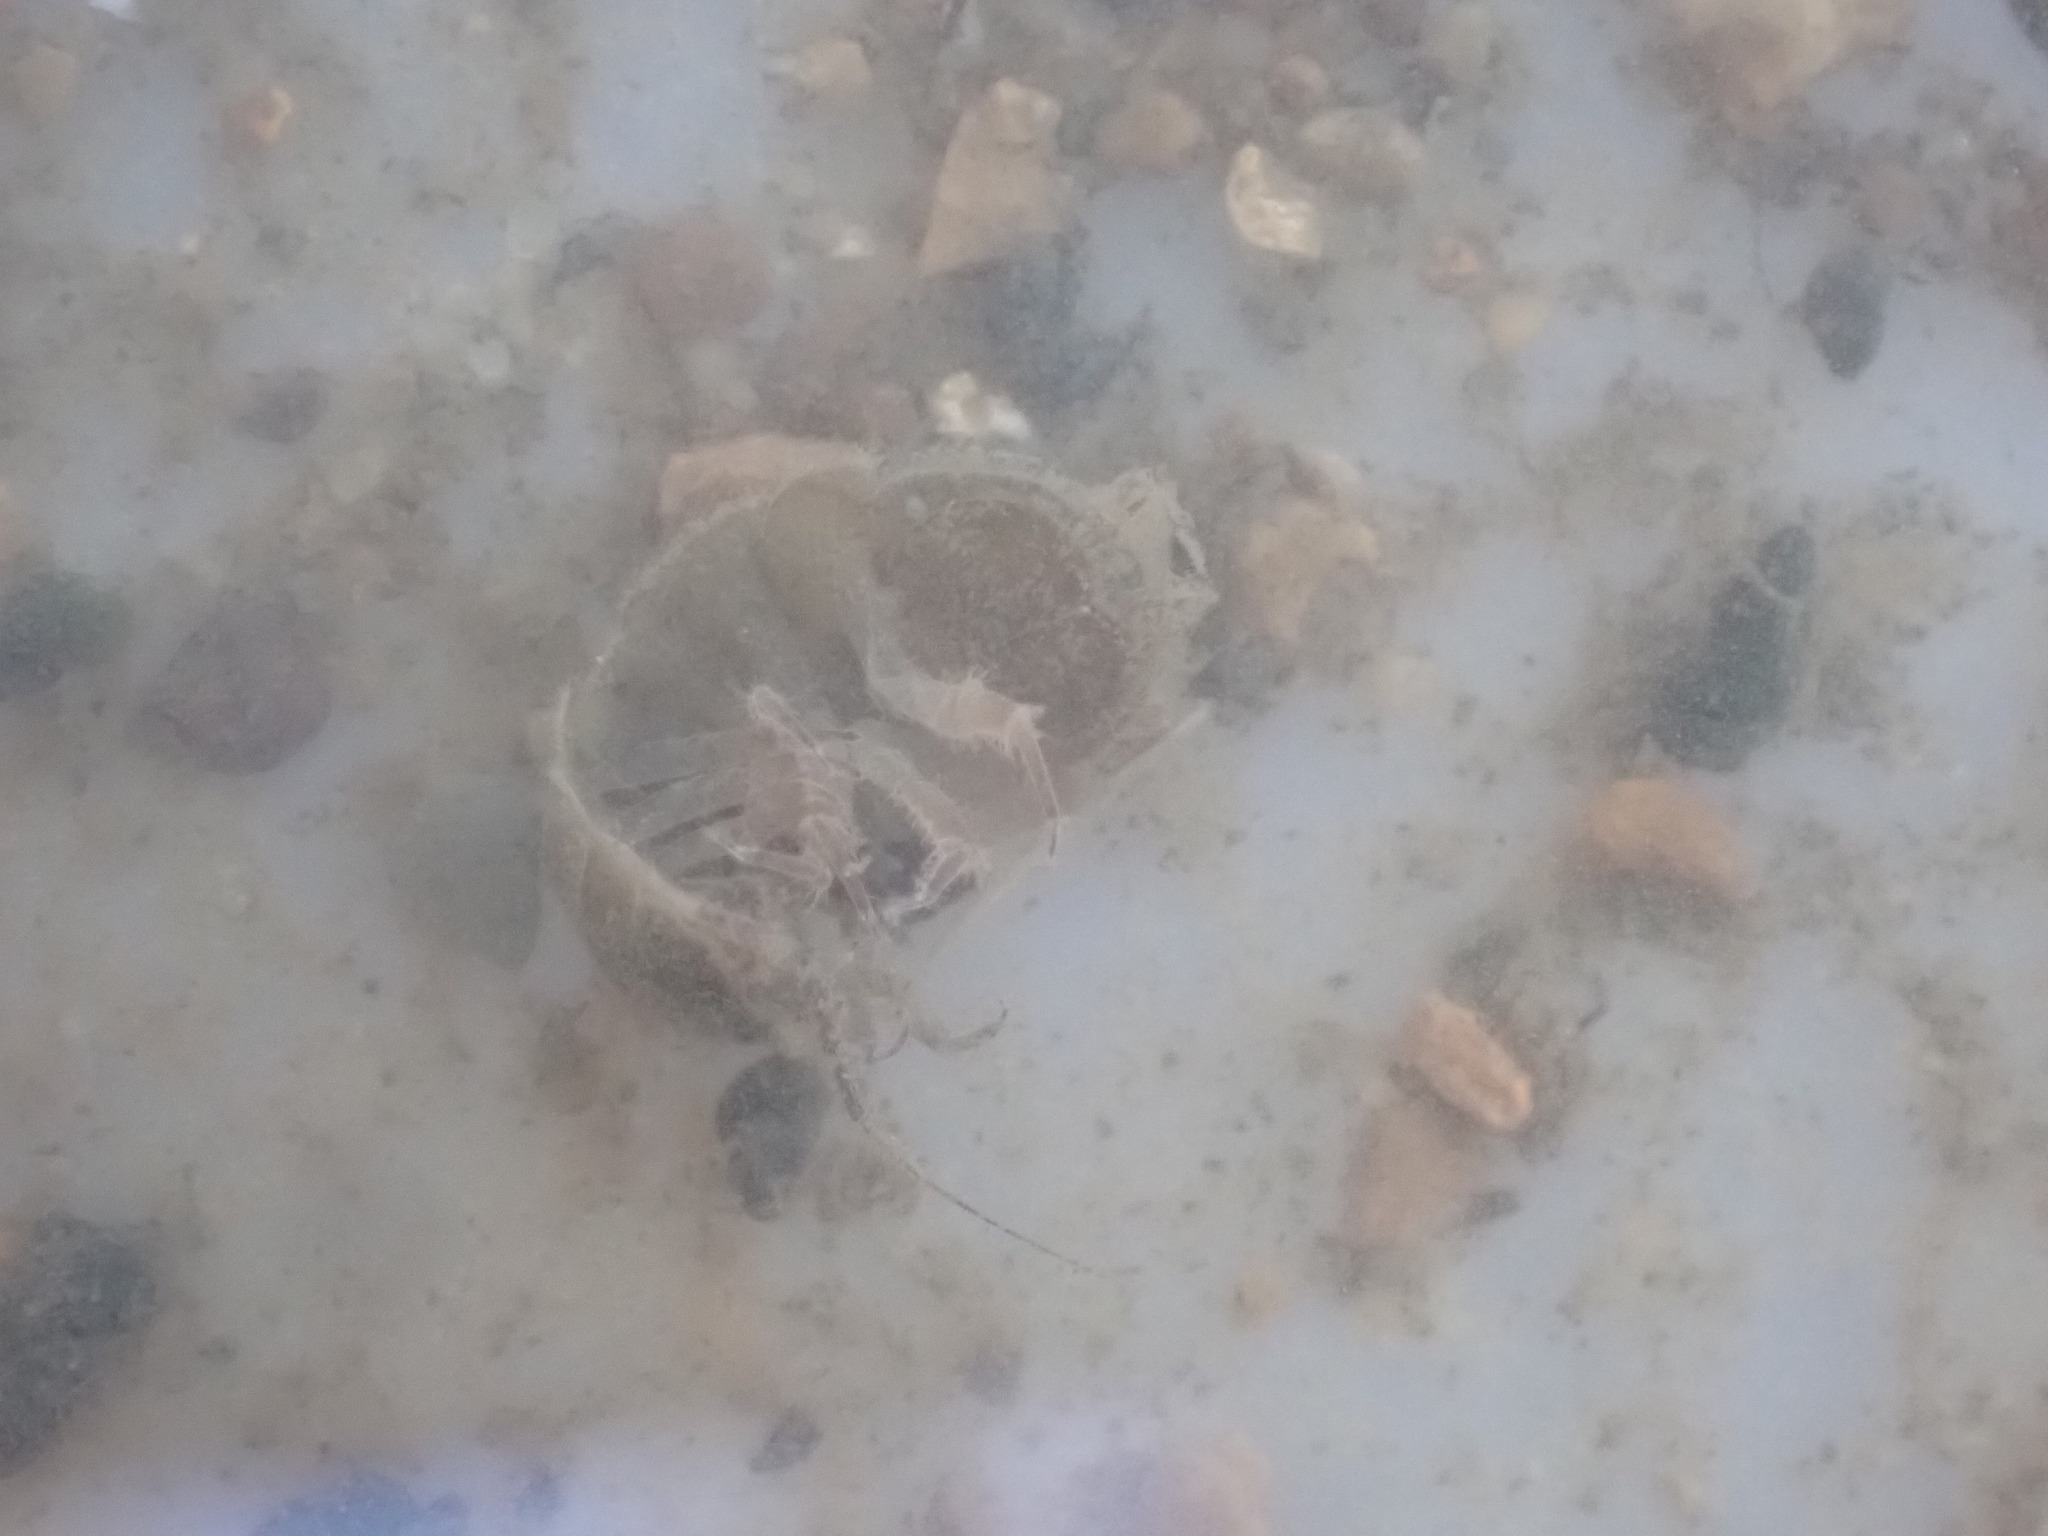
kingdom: Animalia
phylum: Arthropoda
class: Malacostraca
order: Isopoda
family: Asellidae
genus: Lirceus
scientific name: Lirceus brachyurus
